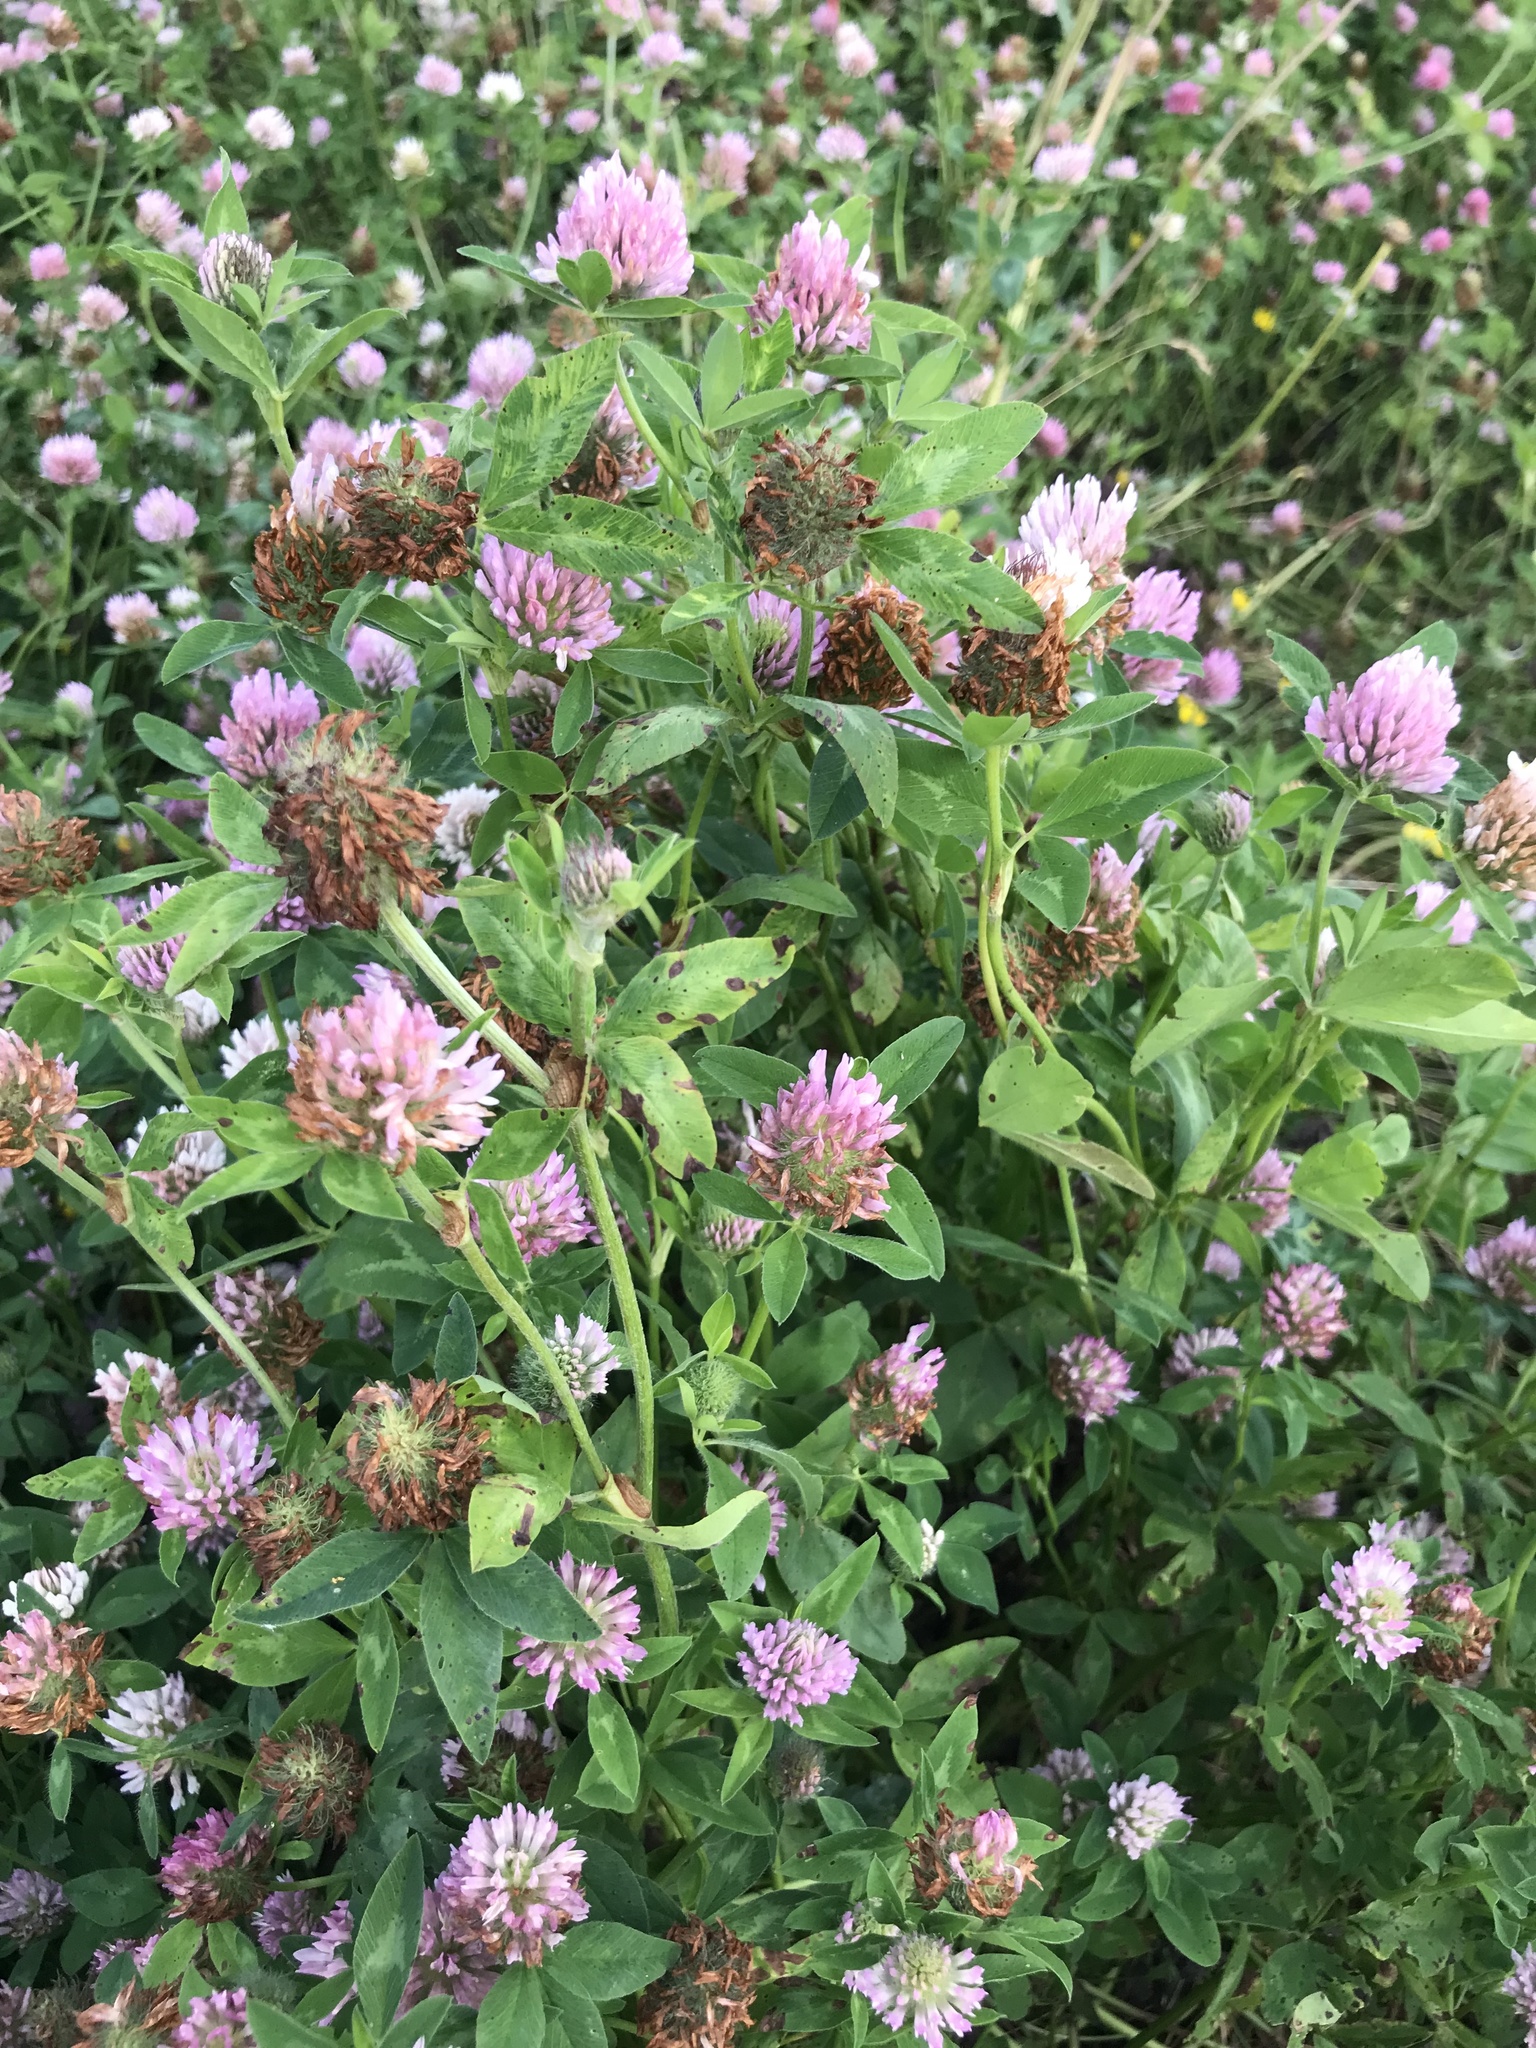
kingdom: Plantae
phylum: Tracheophyta
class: Magnoliopsida
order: Fabales
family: Fabaceae
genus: Trifolium
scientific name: Trifolium pratense
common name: Red clover
